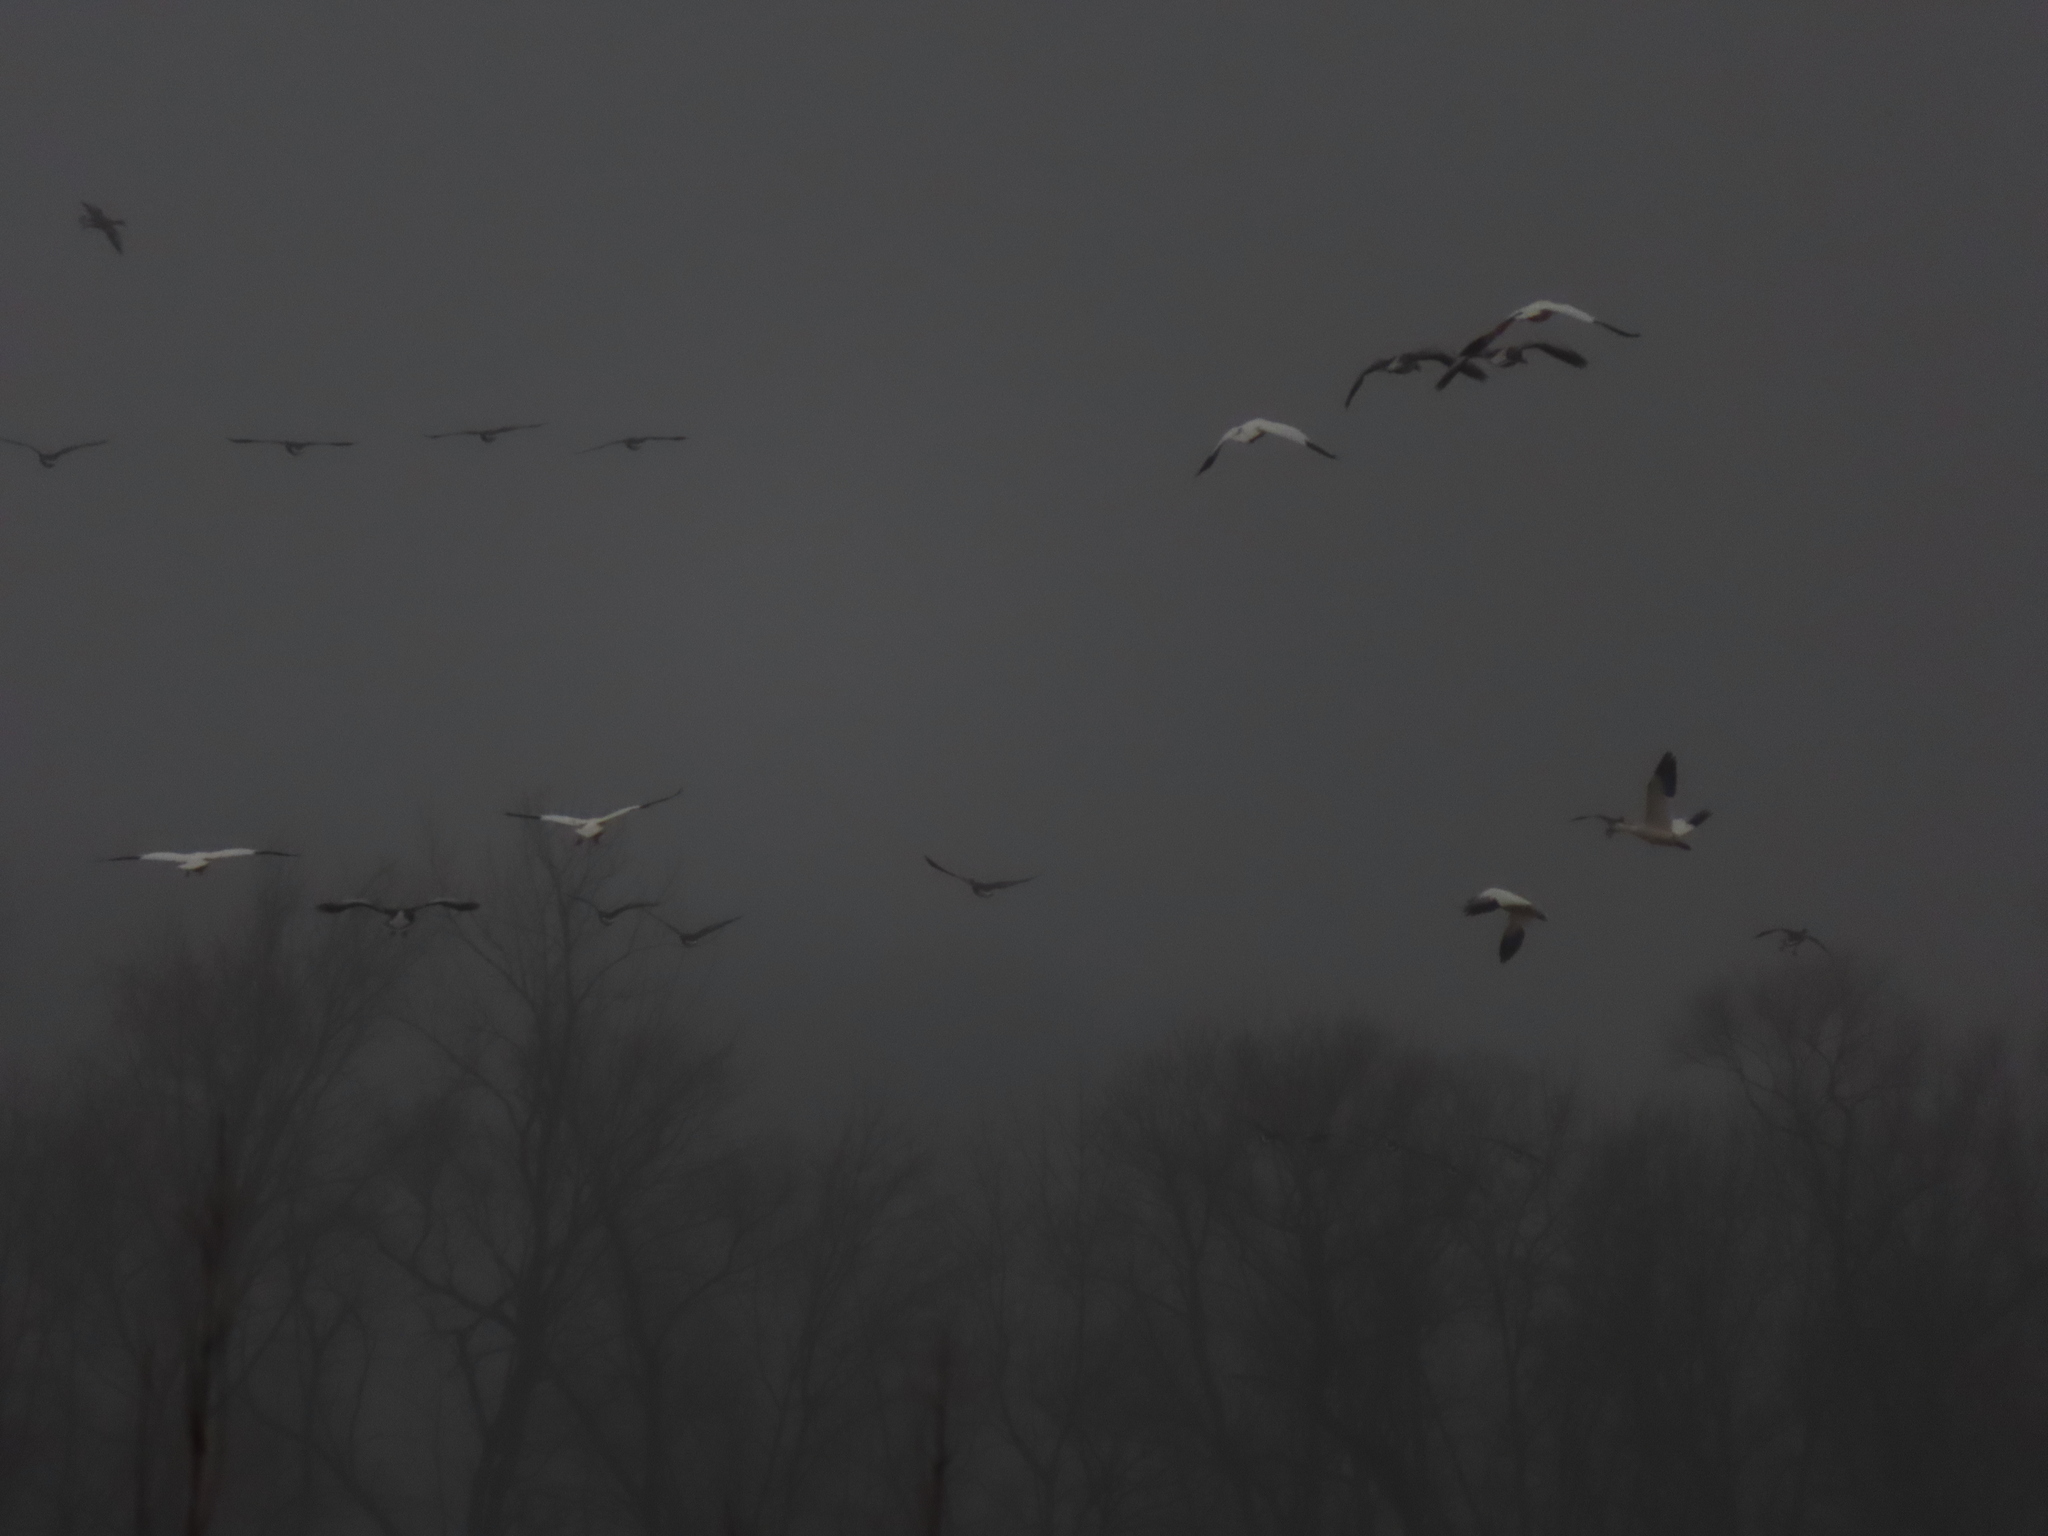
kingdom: Animalia
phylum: Chordata
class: Aves
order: Anseriformes
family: Anatidae
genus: Anser
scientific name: Anser caerulescens
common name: Snow goose
